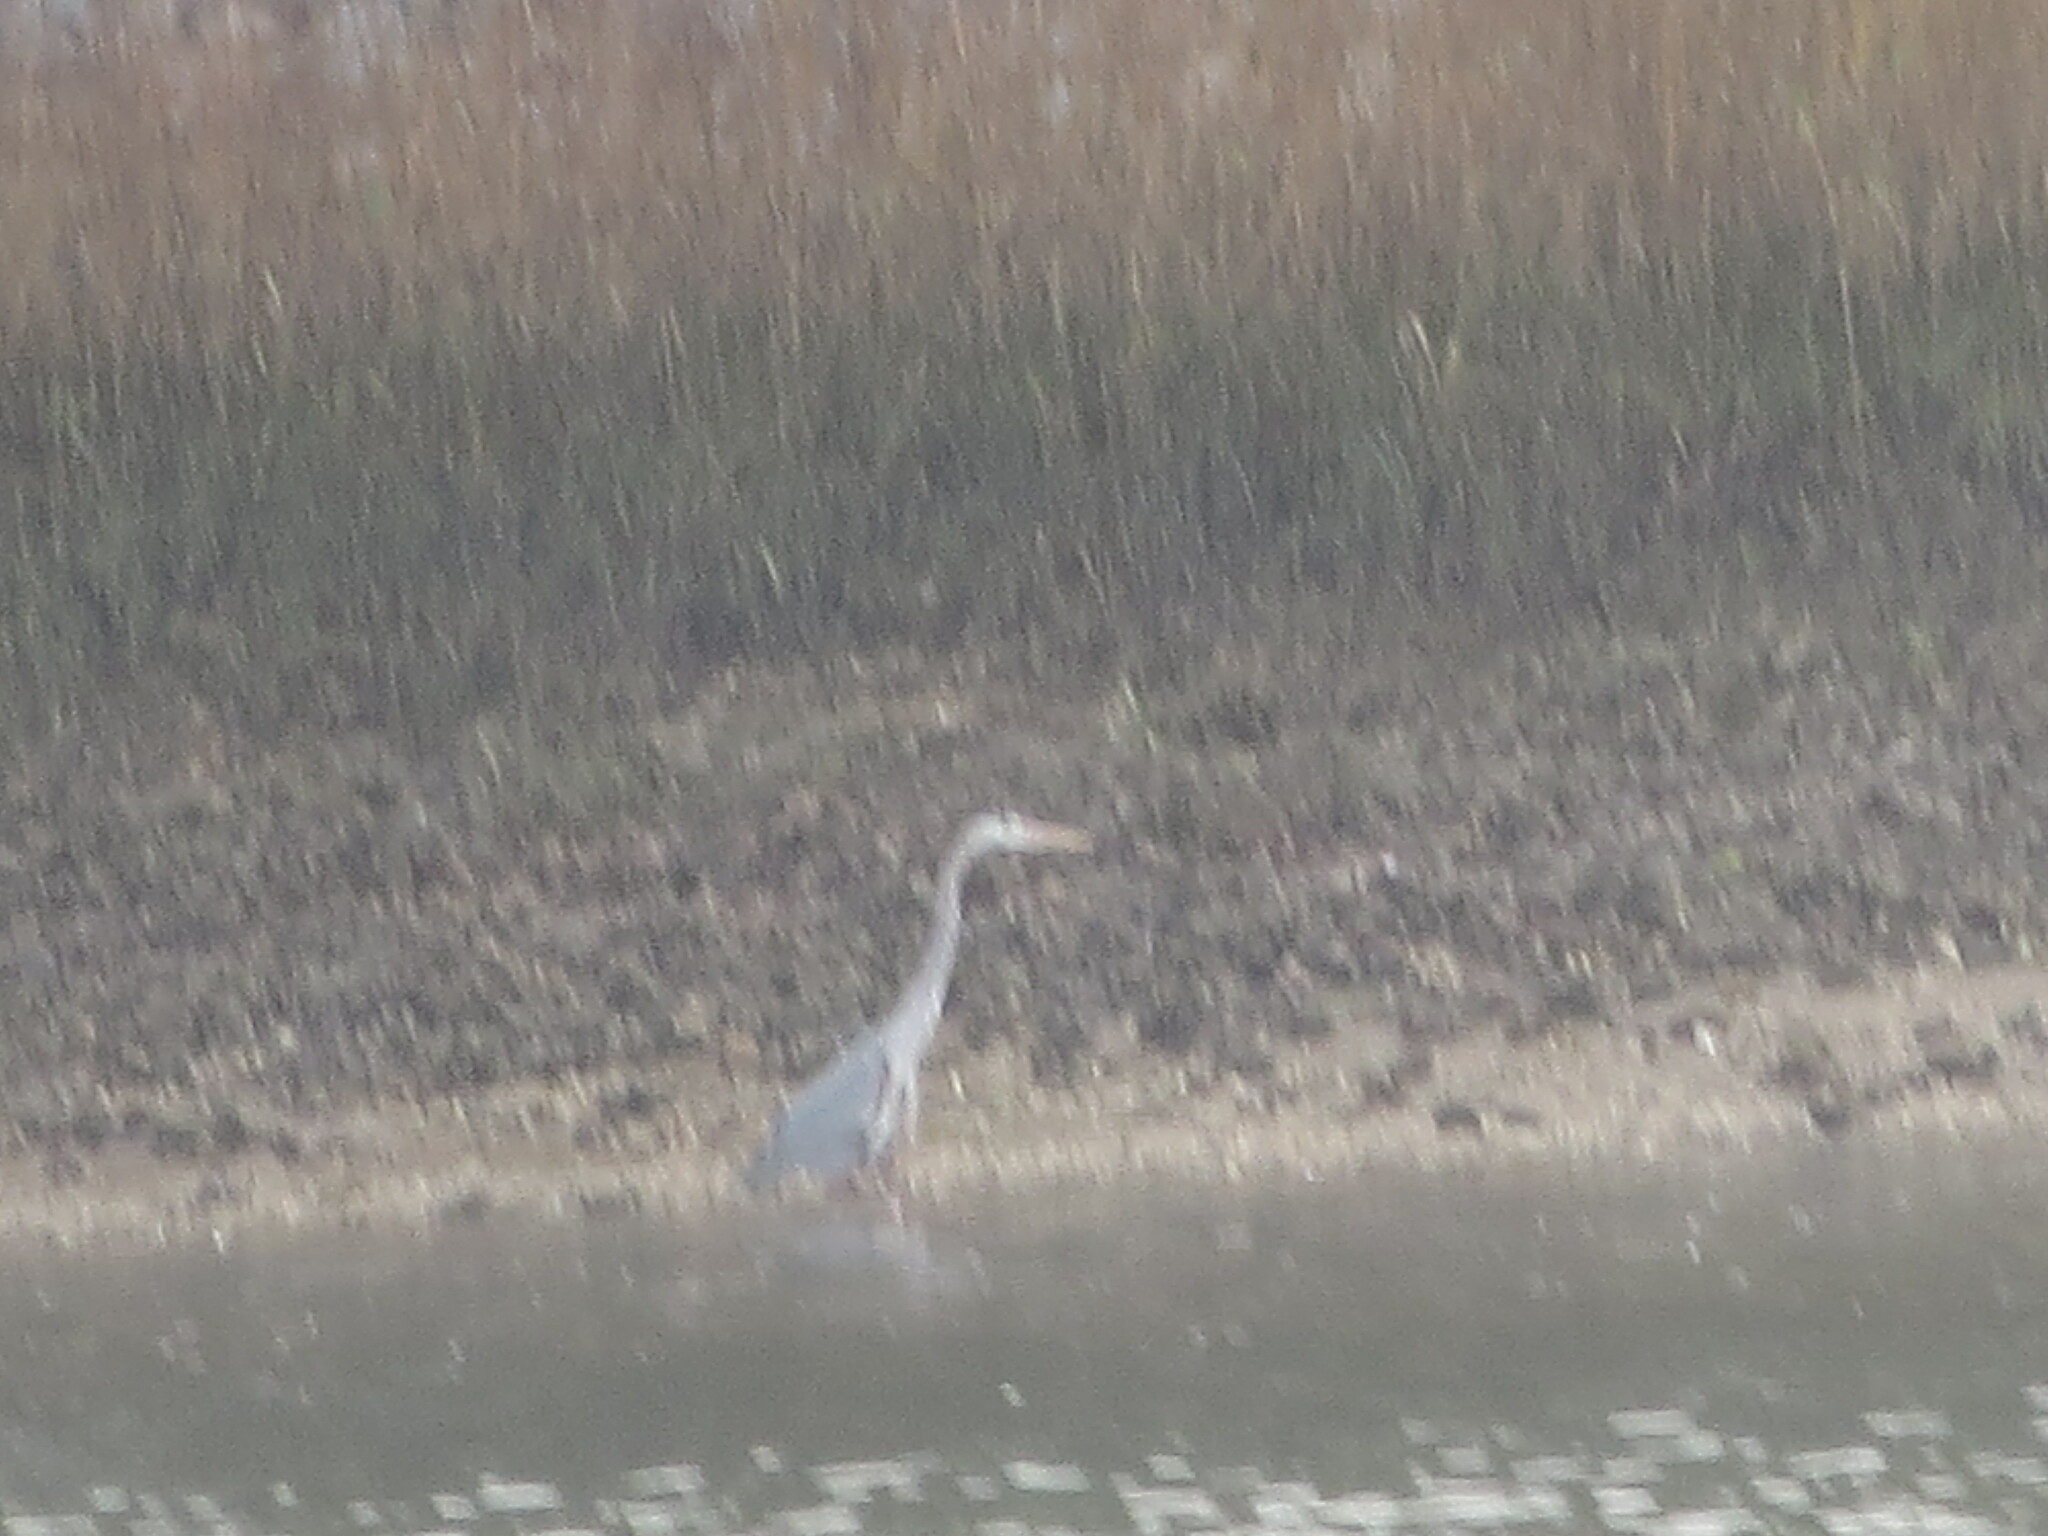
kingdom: Animalia
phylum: Chordata
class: Aves
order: Pelecaniformes
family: Ardeidae
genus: Ardea
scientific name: Ardea herodias
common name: Great blue heron
